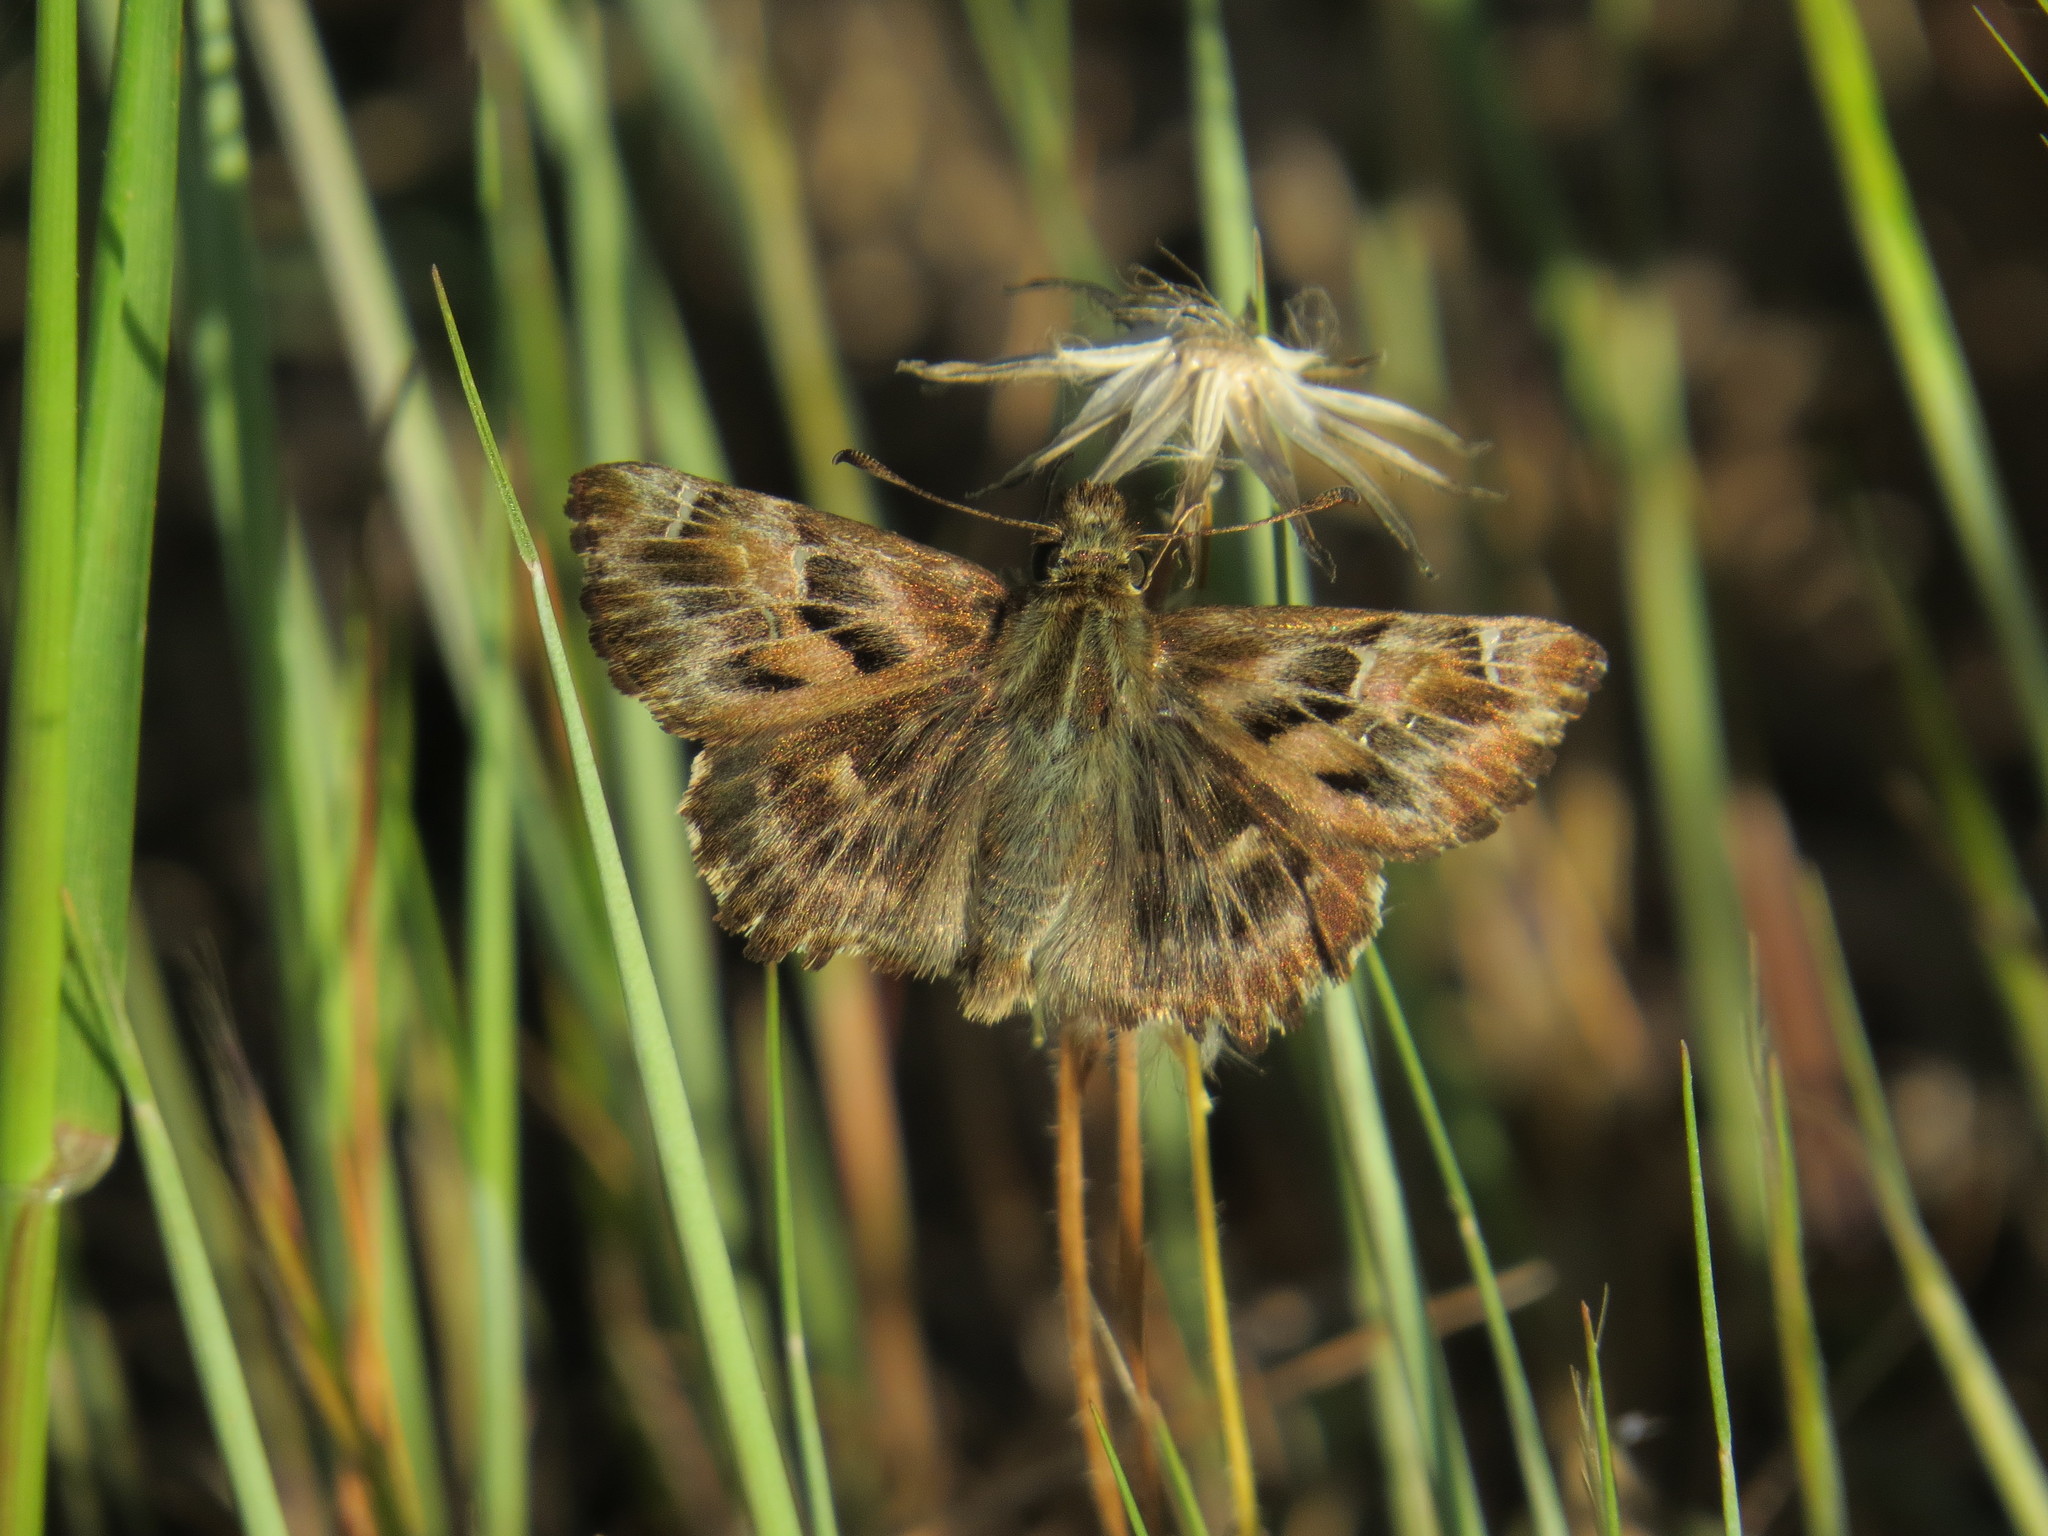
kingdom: Animalia
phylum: Arthropoda
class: Insecta
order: Lepidoptera
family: Hesperiidae
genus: Carcharodus
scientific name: Carcharodus alceae
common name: Mallow skipper
